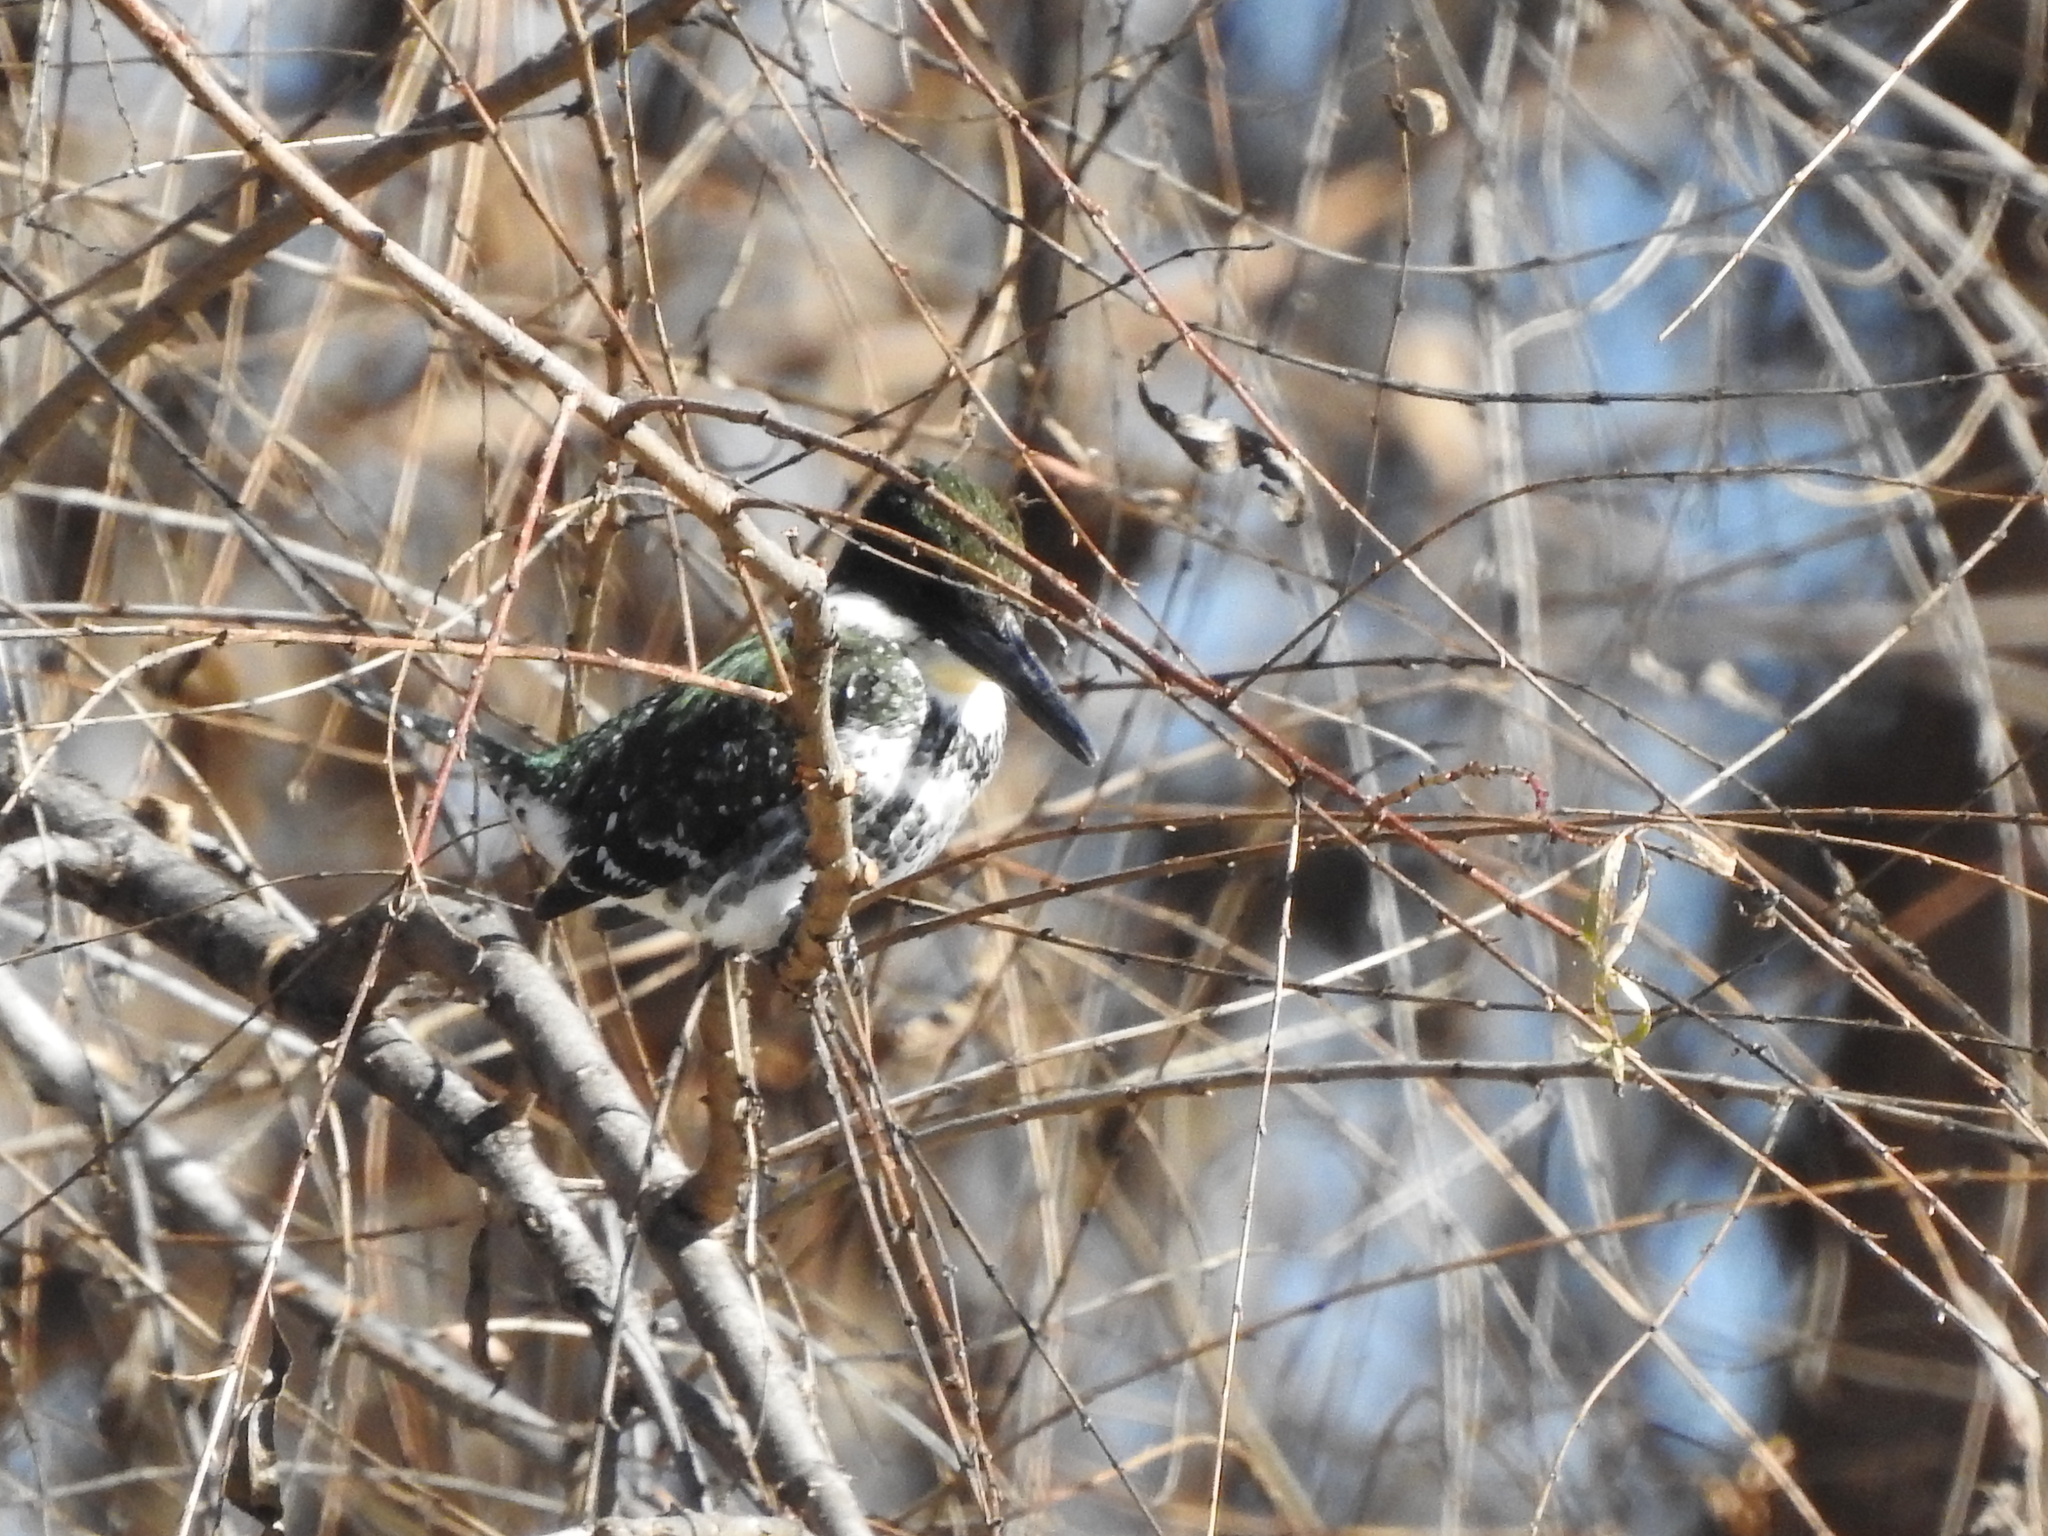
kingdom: Animalia
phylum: Chordata
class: Aves
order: Coraciiformes
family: Alcedinidae
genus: Chloroceryle
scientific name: Chloroceryle americana
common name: Green kingfisher
